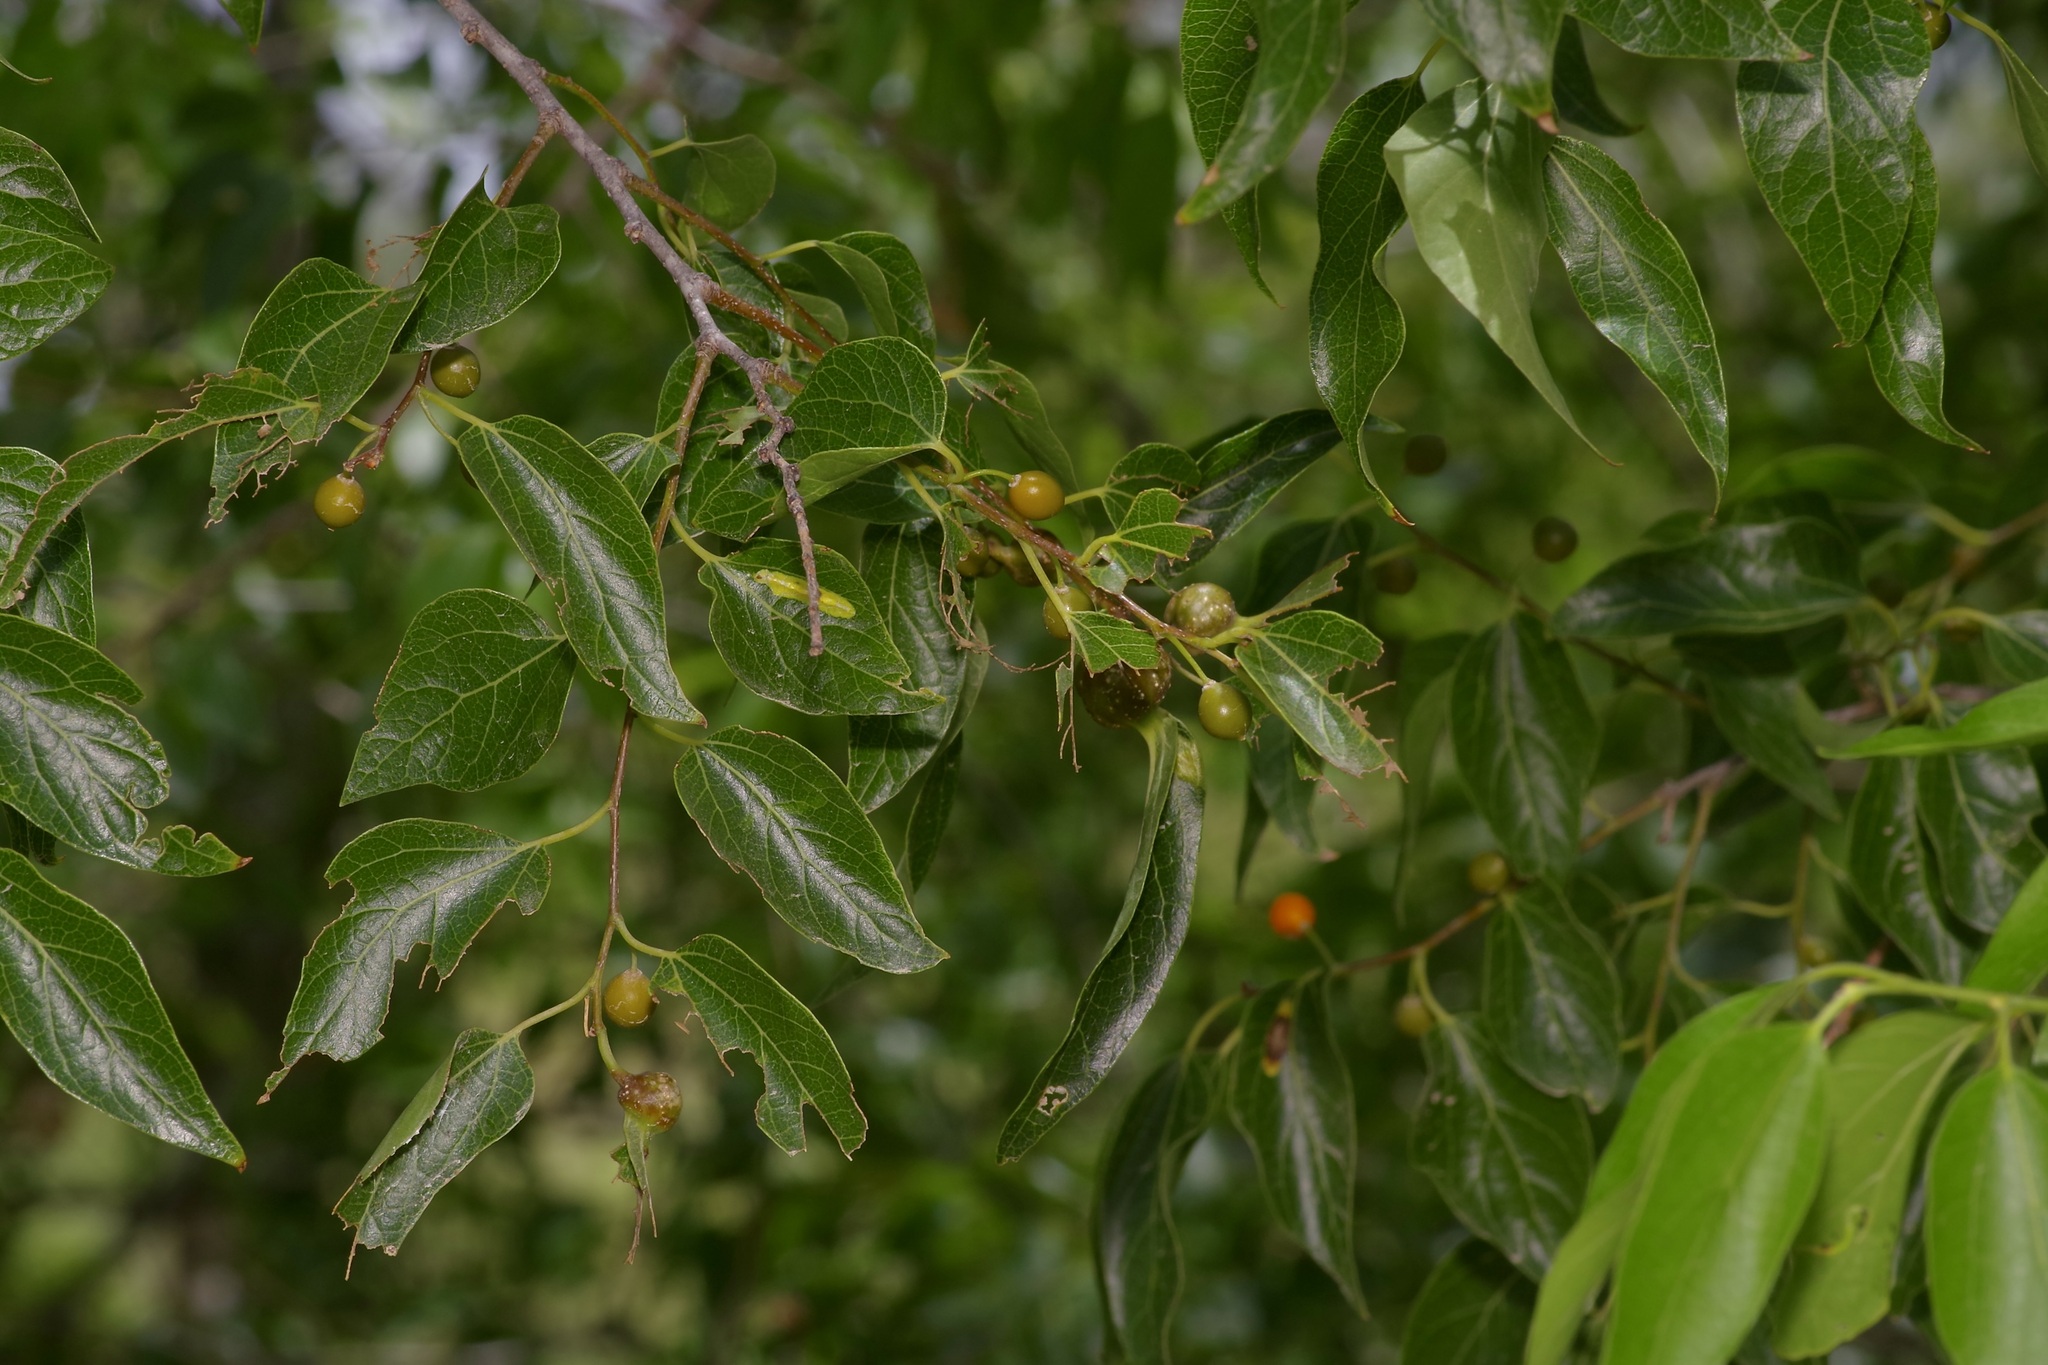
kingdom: Plantae
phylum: Tracheophyta
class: Magnoliopsida
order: Rosales
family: Cannabaceae
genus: Celtis
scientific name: Celtis laevigata
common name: Sugarberry
